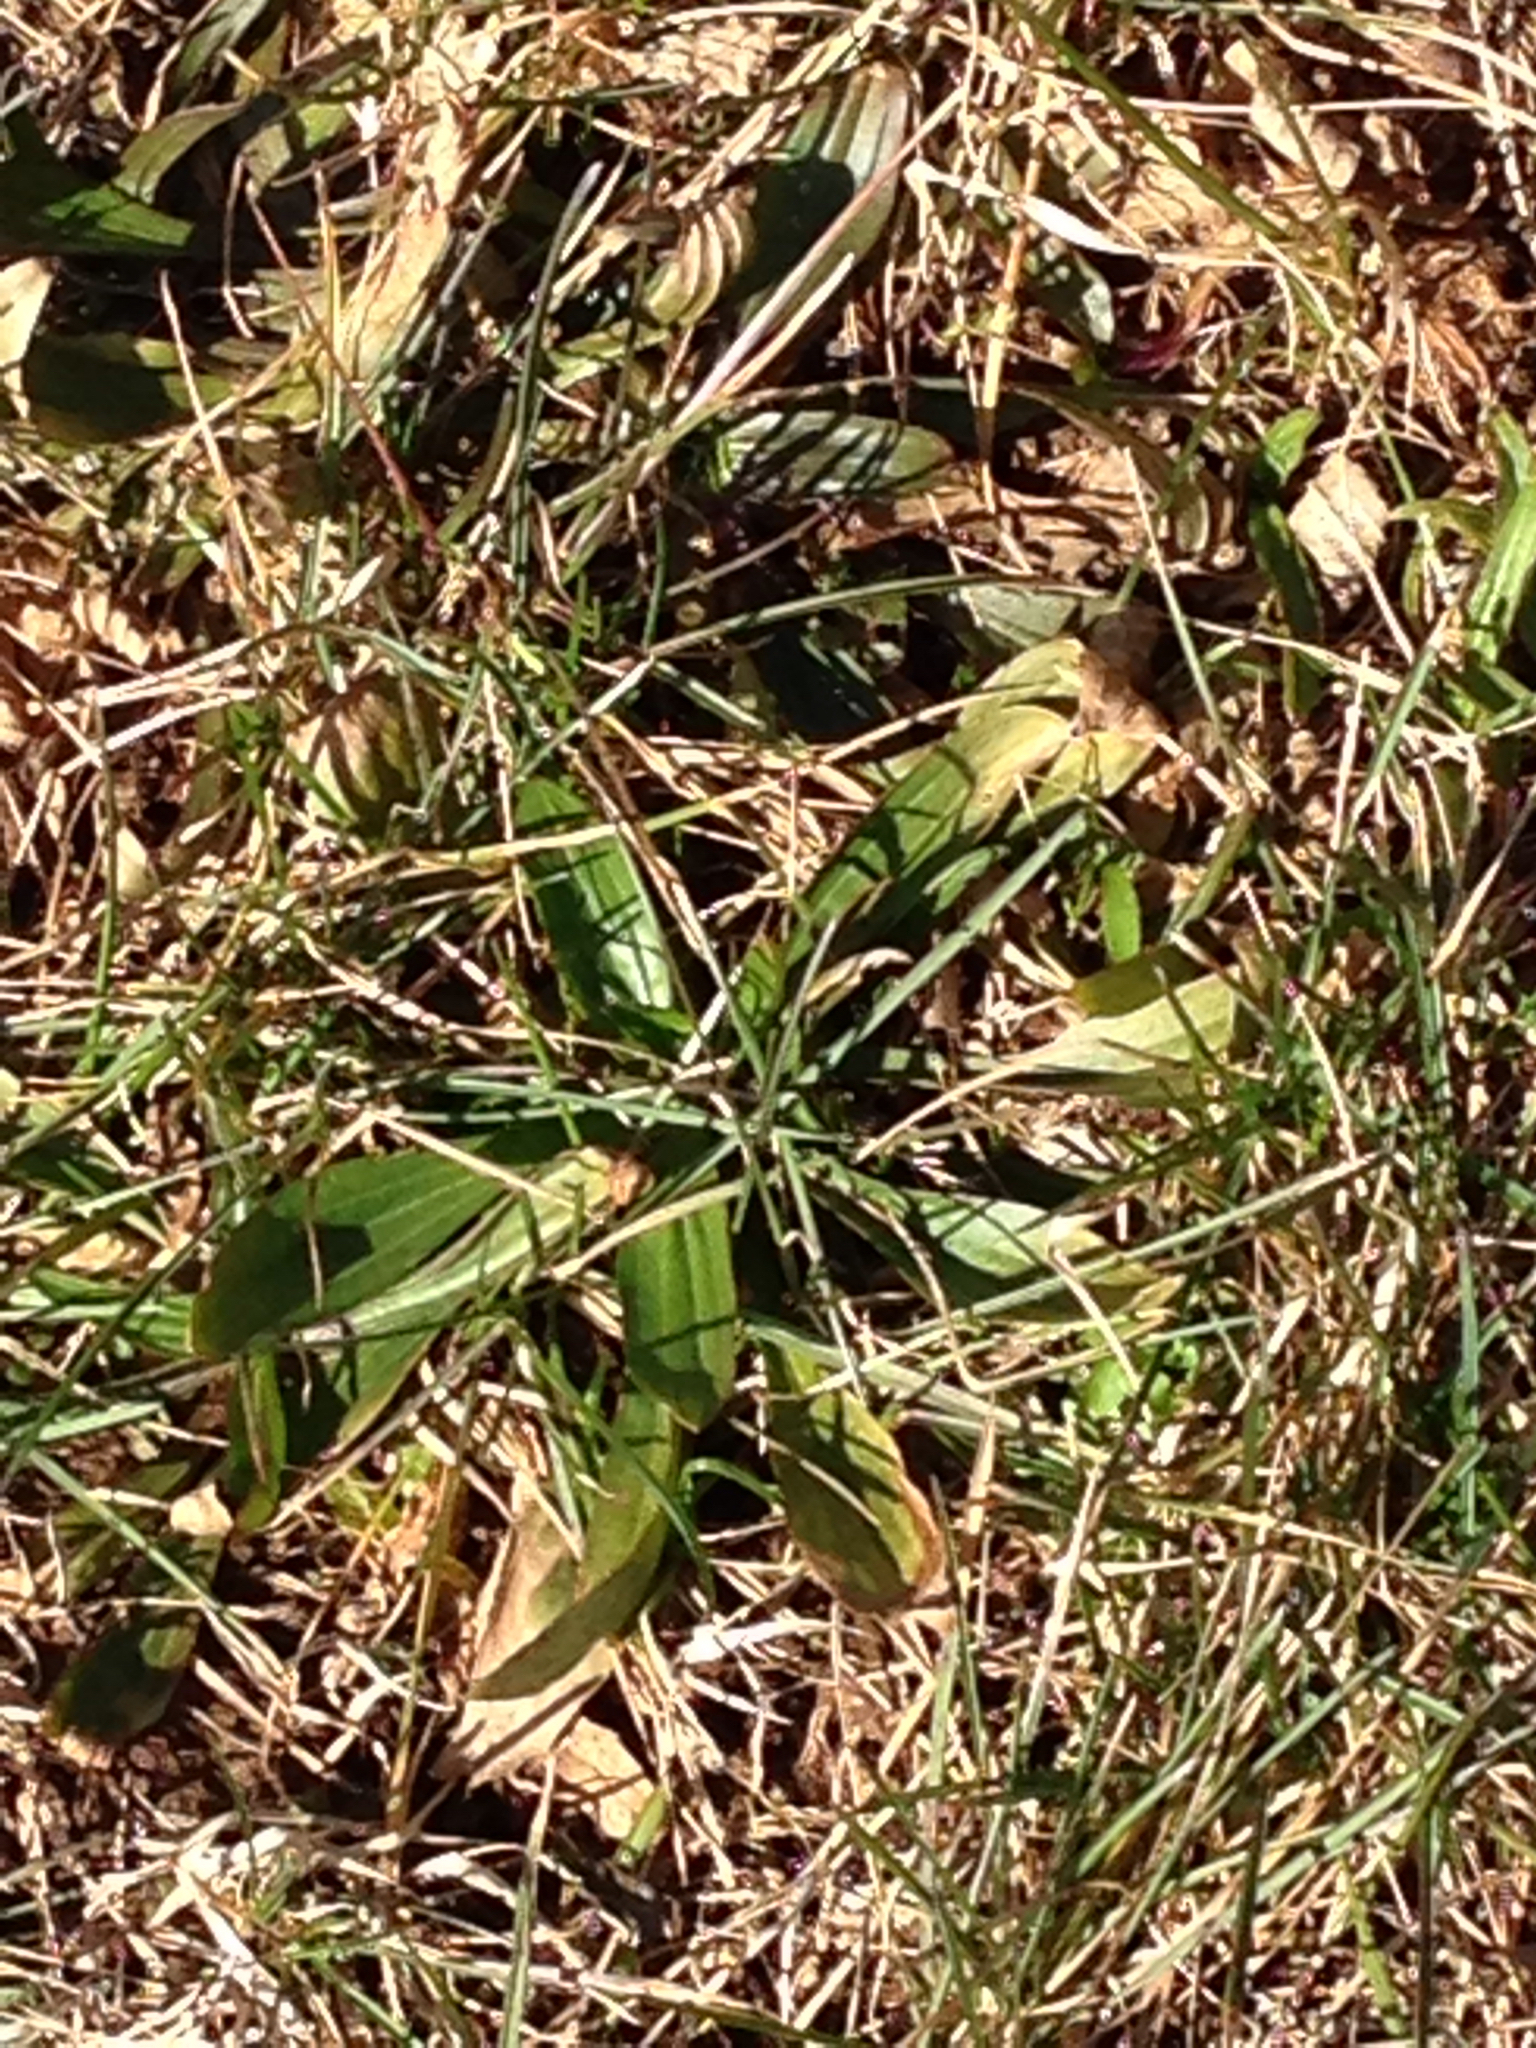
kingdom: Plantae
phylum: Tracheophyta
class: Magnoliopsida
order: Lamiales
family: Plantaginaceae
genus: Plantago
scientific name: Plantago lanceolata
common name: Ribwort plantain
